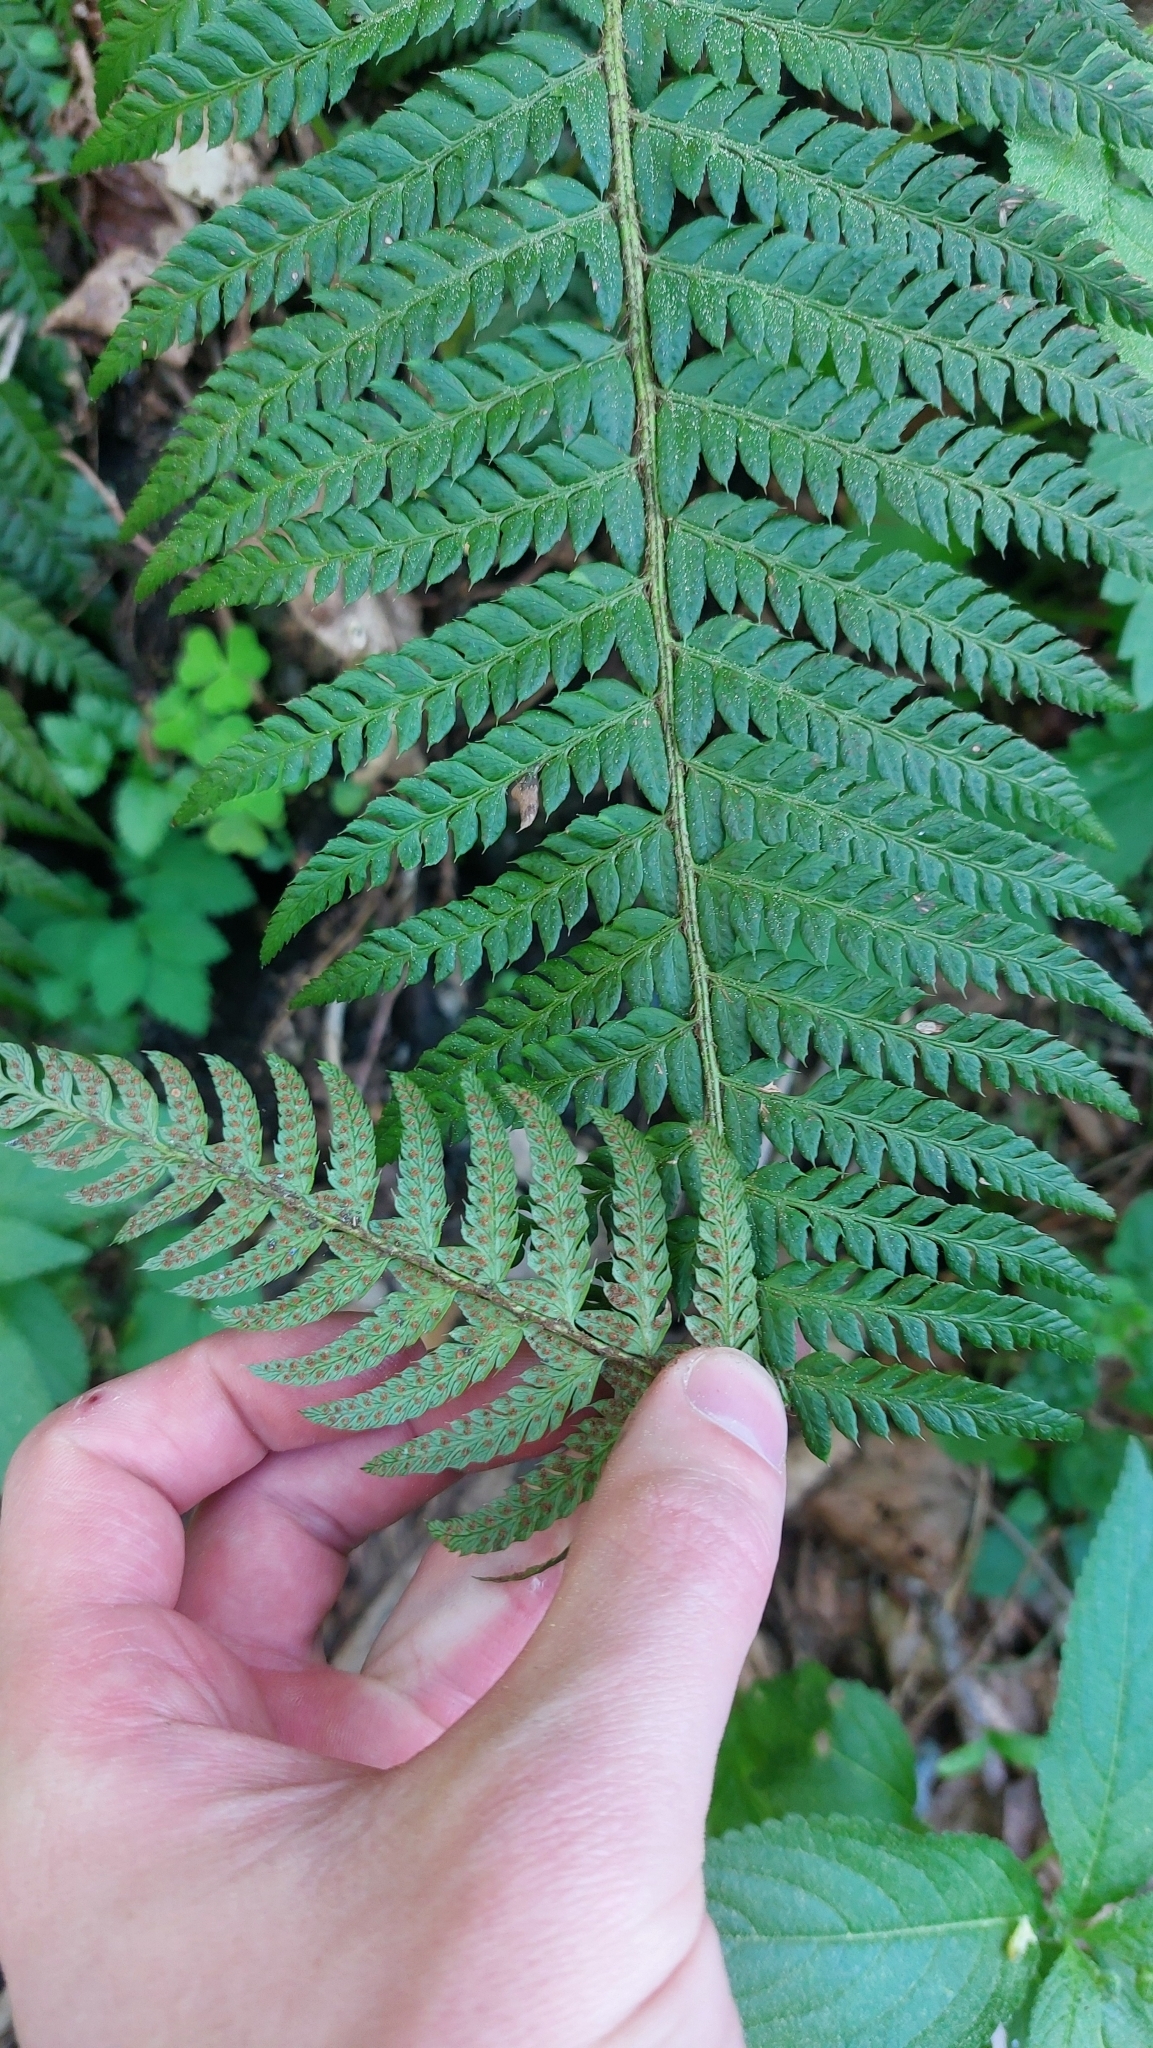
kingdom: Plantae
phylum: Tracheophyta
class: Polypodiopsida
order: Polypodiales
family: Dryopteridaceae
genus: Polystichum
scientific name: Polystichum aculeatum
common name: Hard shield-fern
